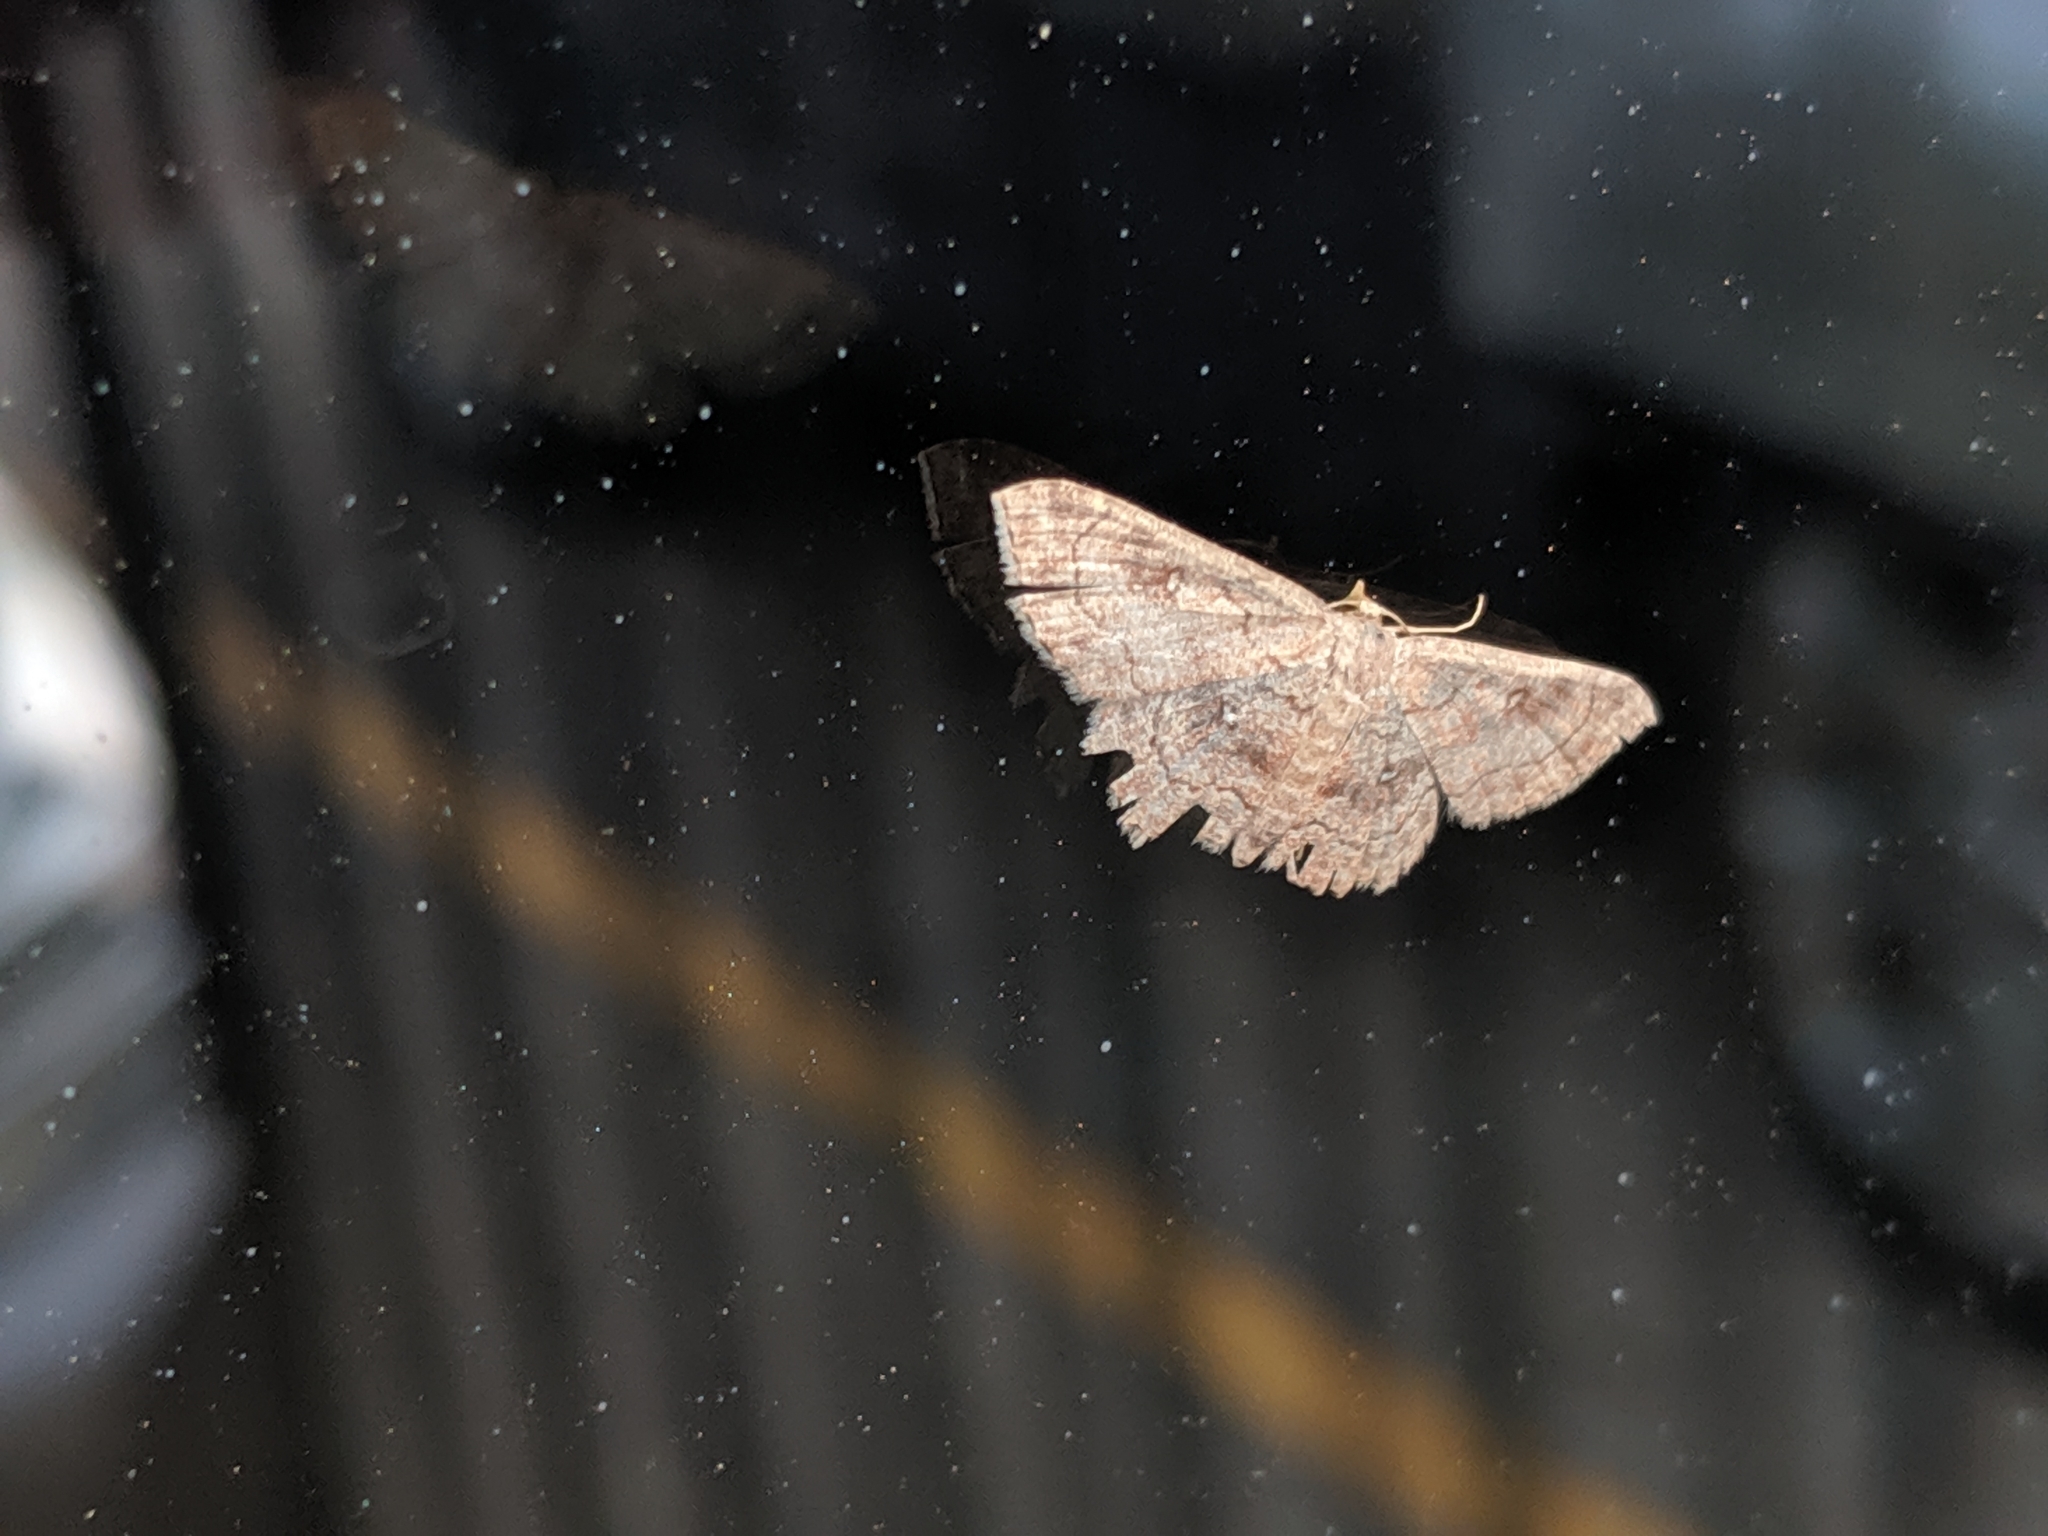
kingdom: Animalia
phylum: Arthropoda
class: Insecta
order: Lepidoptera
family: Geometridae
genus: Cyclophora
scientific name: Cyclophora nanaria
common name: Cankerworm
